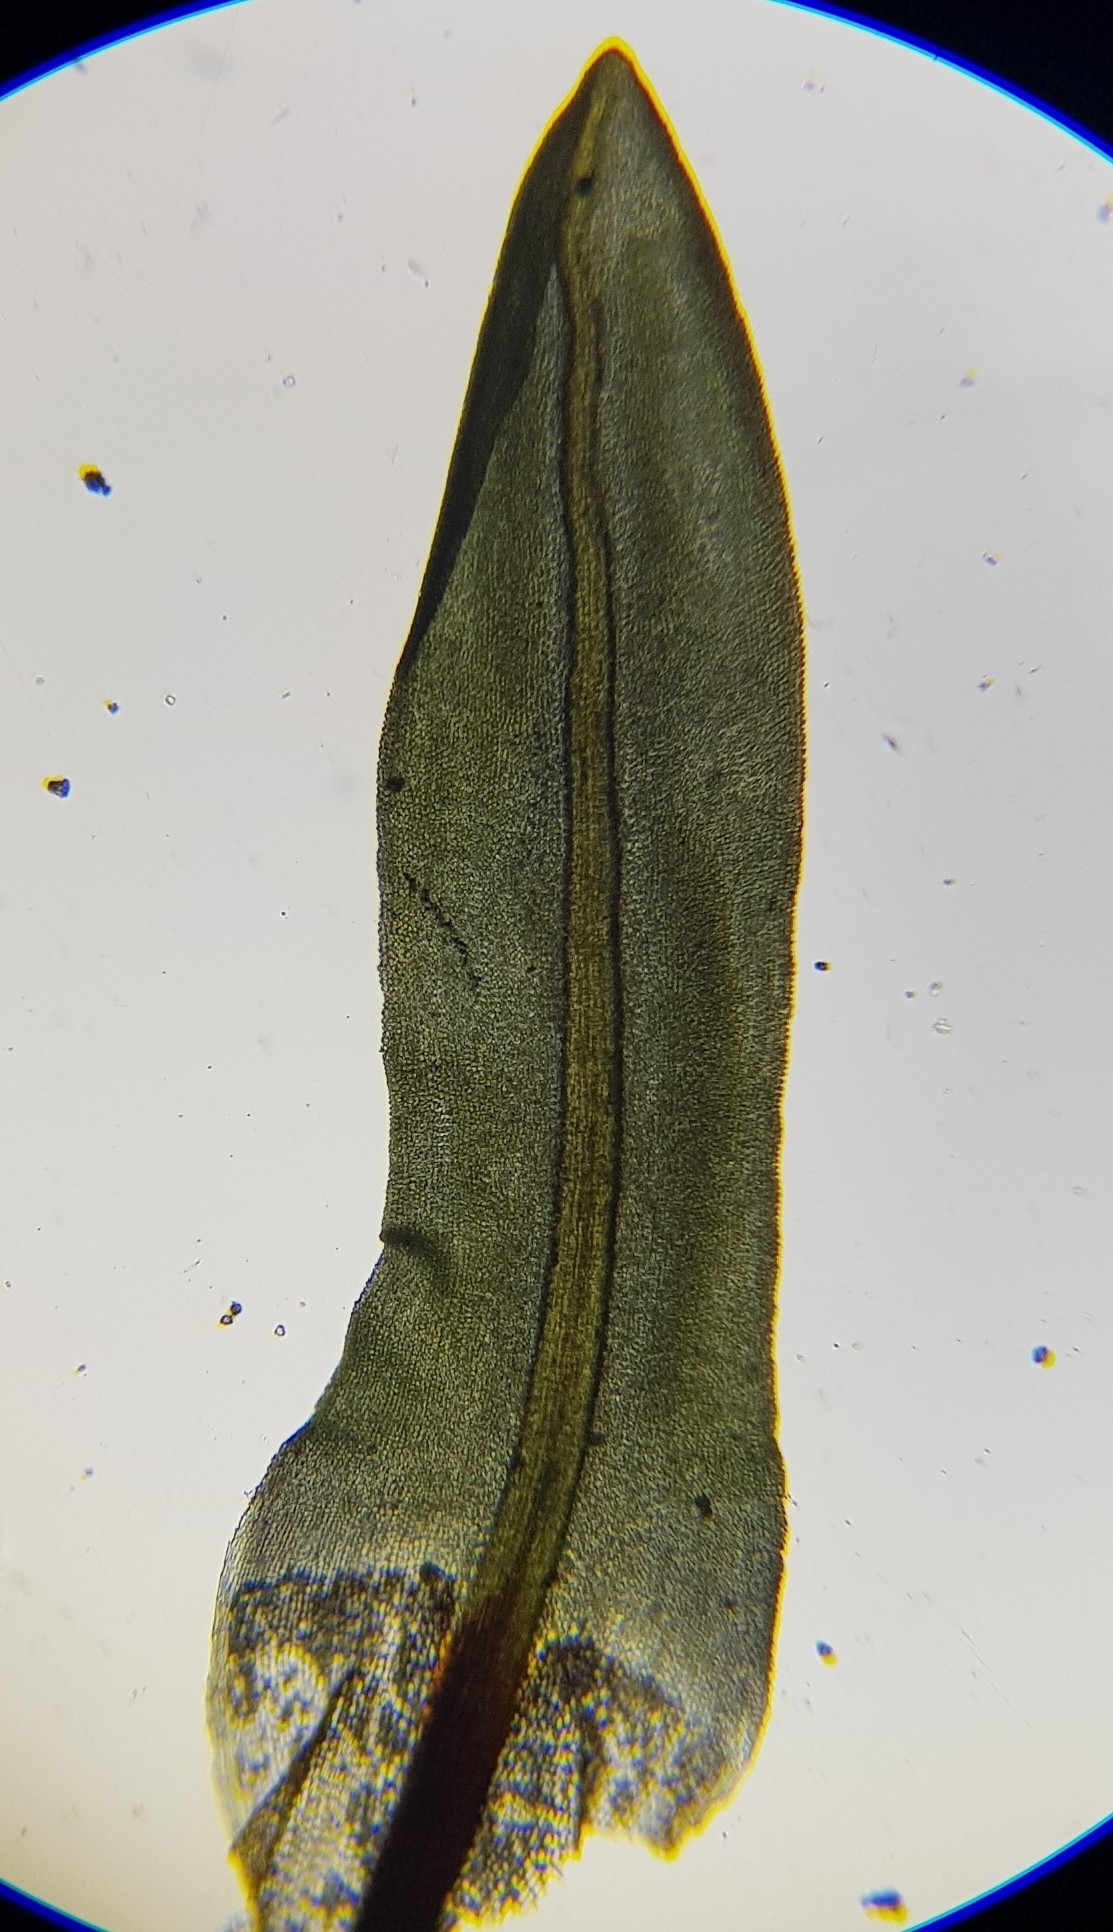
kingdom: Plantae
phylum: Bryophyta
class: Bryopsida
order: Encalyptales
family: Encalyptaceae
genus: Encalypta
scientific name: Encalypta streptocarpa
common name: Spiral extinguisher-moss
